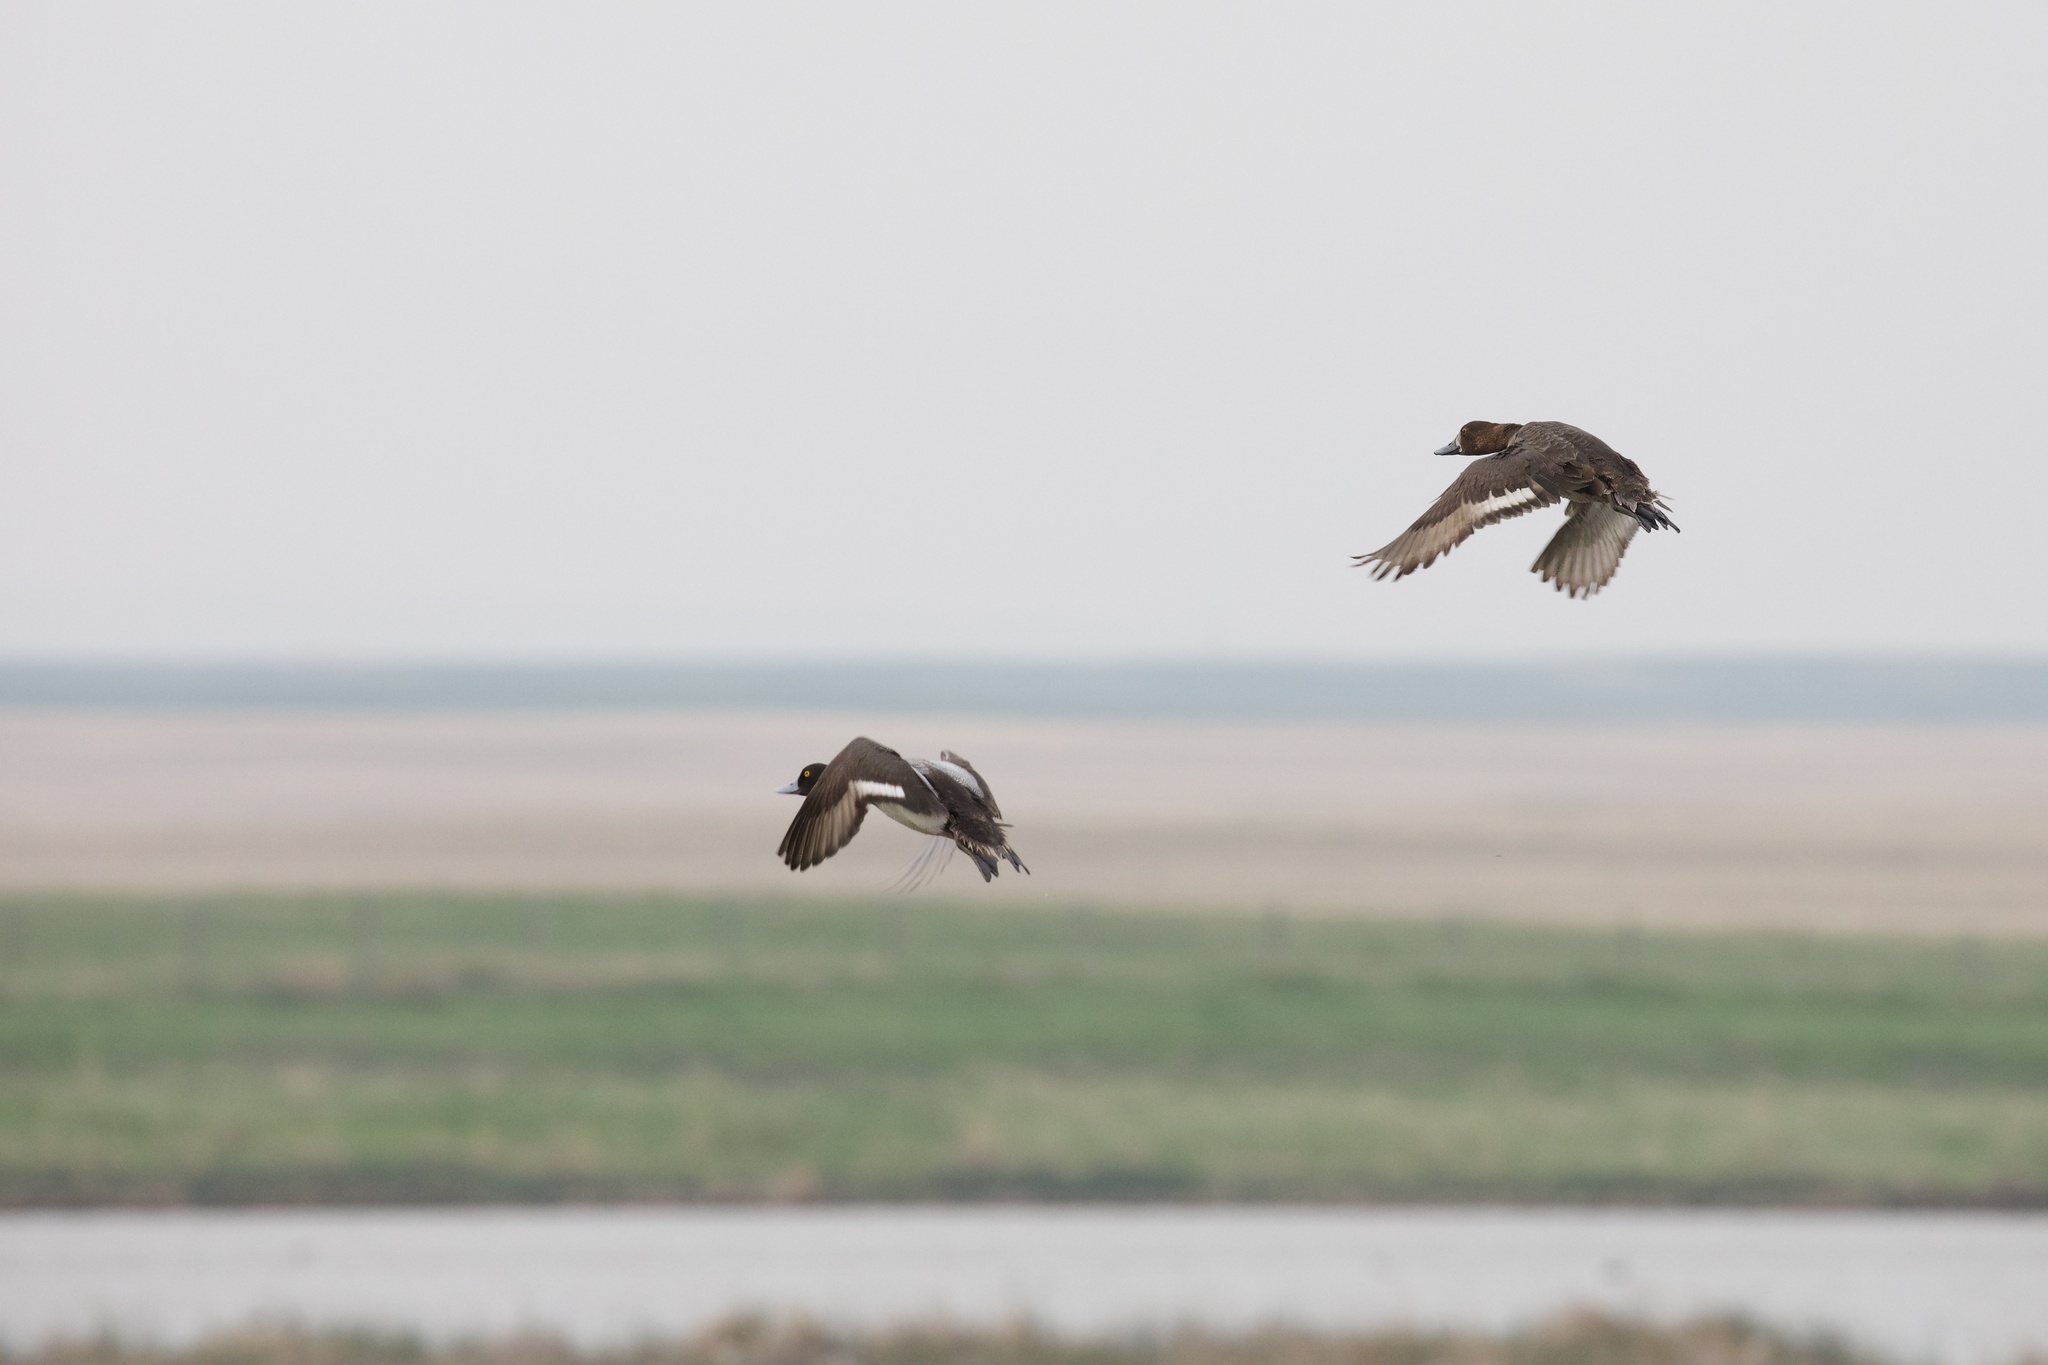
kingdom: Animalia
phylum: Chordata
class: Aves
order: Anseriformes
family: Anatidae
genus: Aythya
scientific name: Aythya affinis
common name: Lesser scaup
